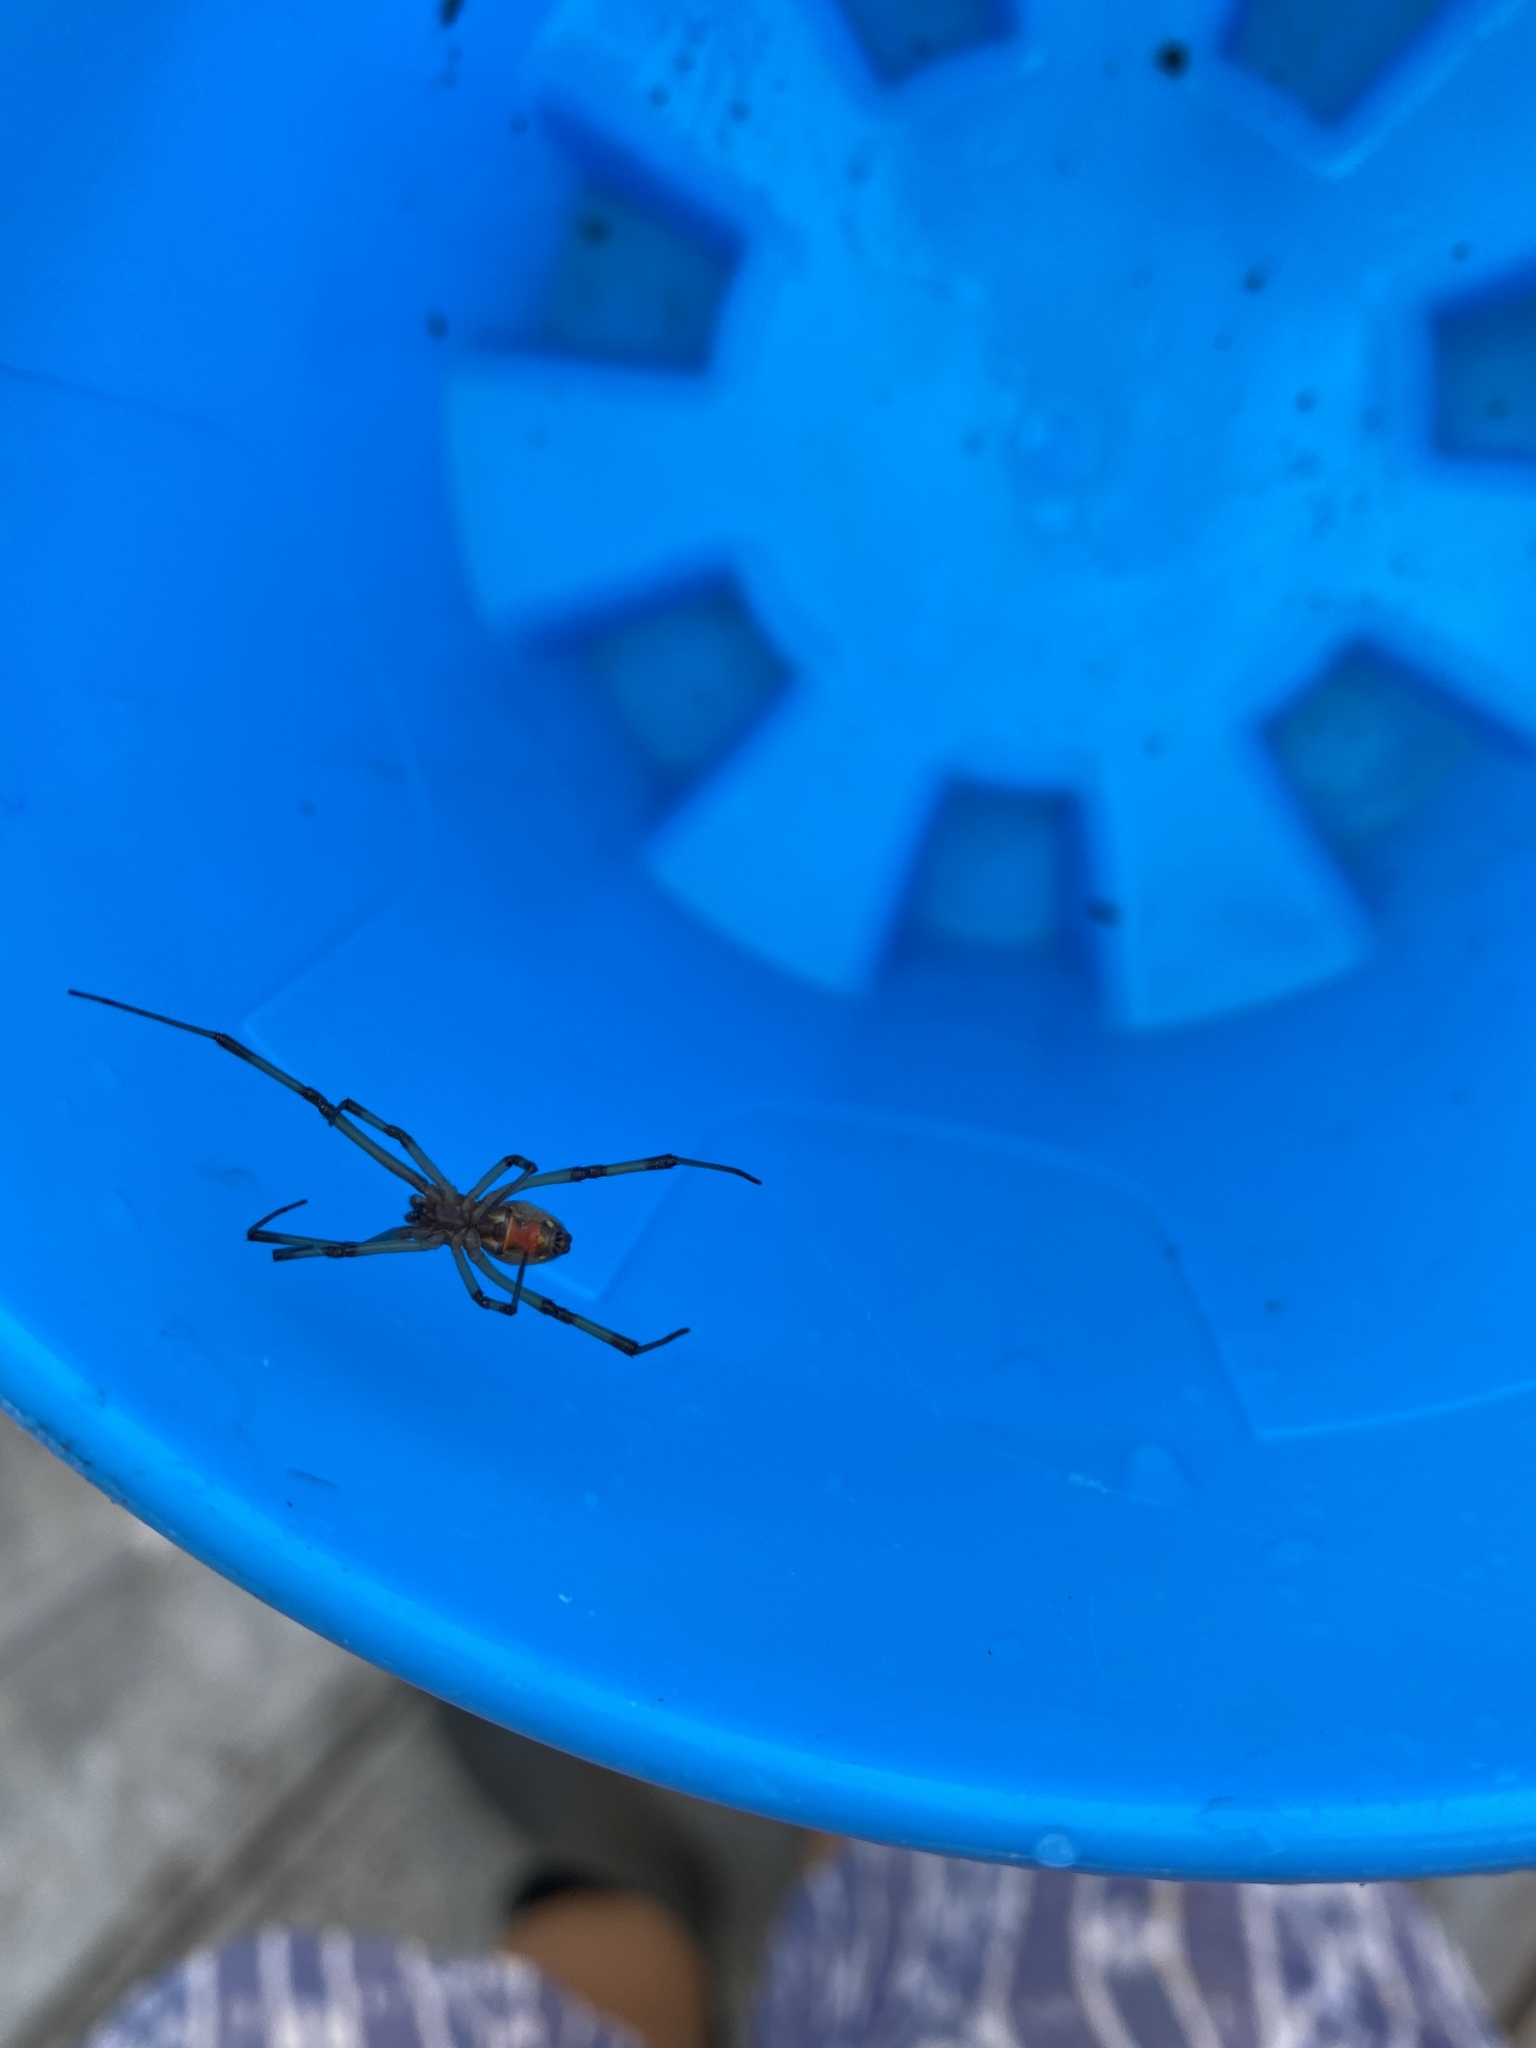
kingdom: Animalia
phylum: Arthropoda
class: Arachnida
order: Araneae
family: Theridiidae
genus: Latrodectus
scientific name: Latrodectus geometricus
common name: Brown widow spider
